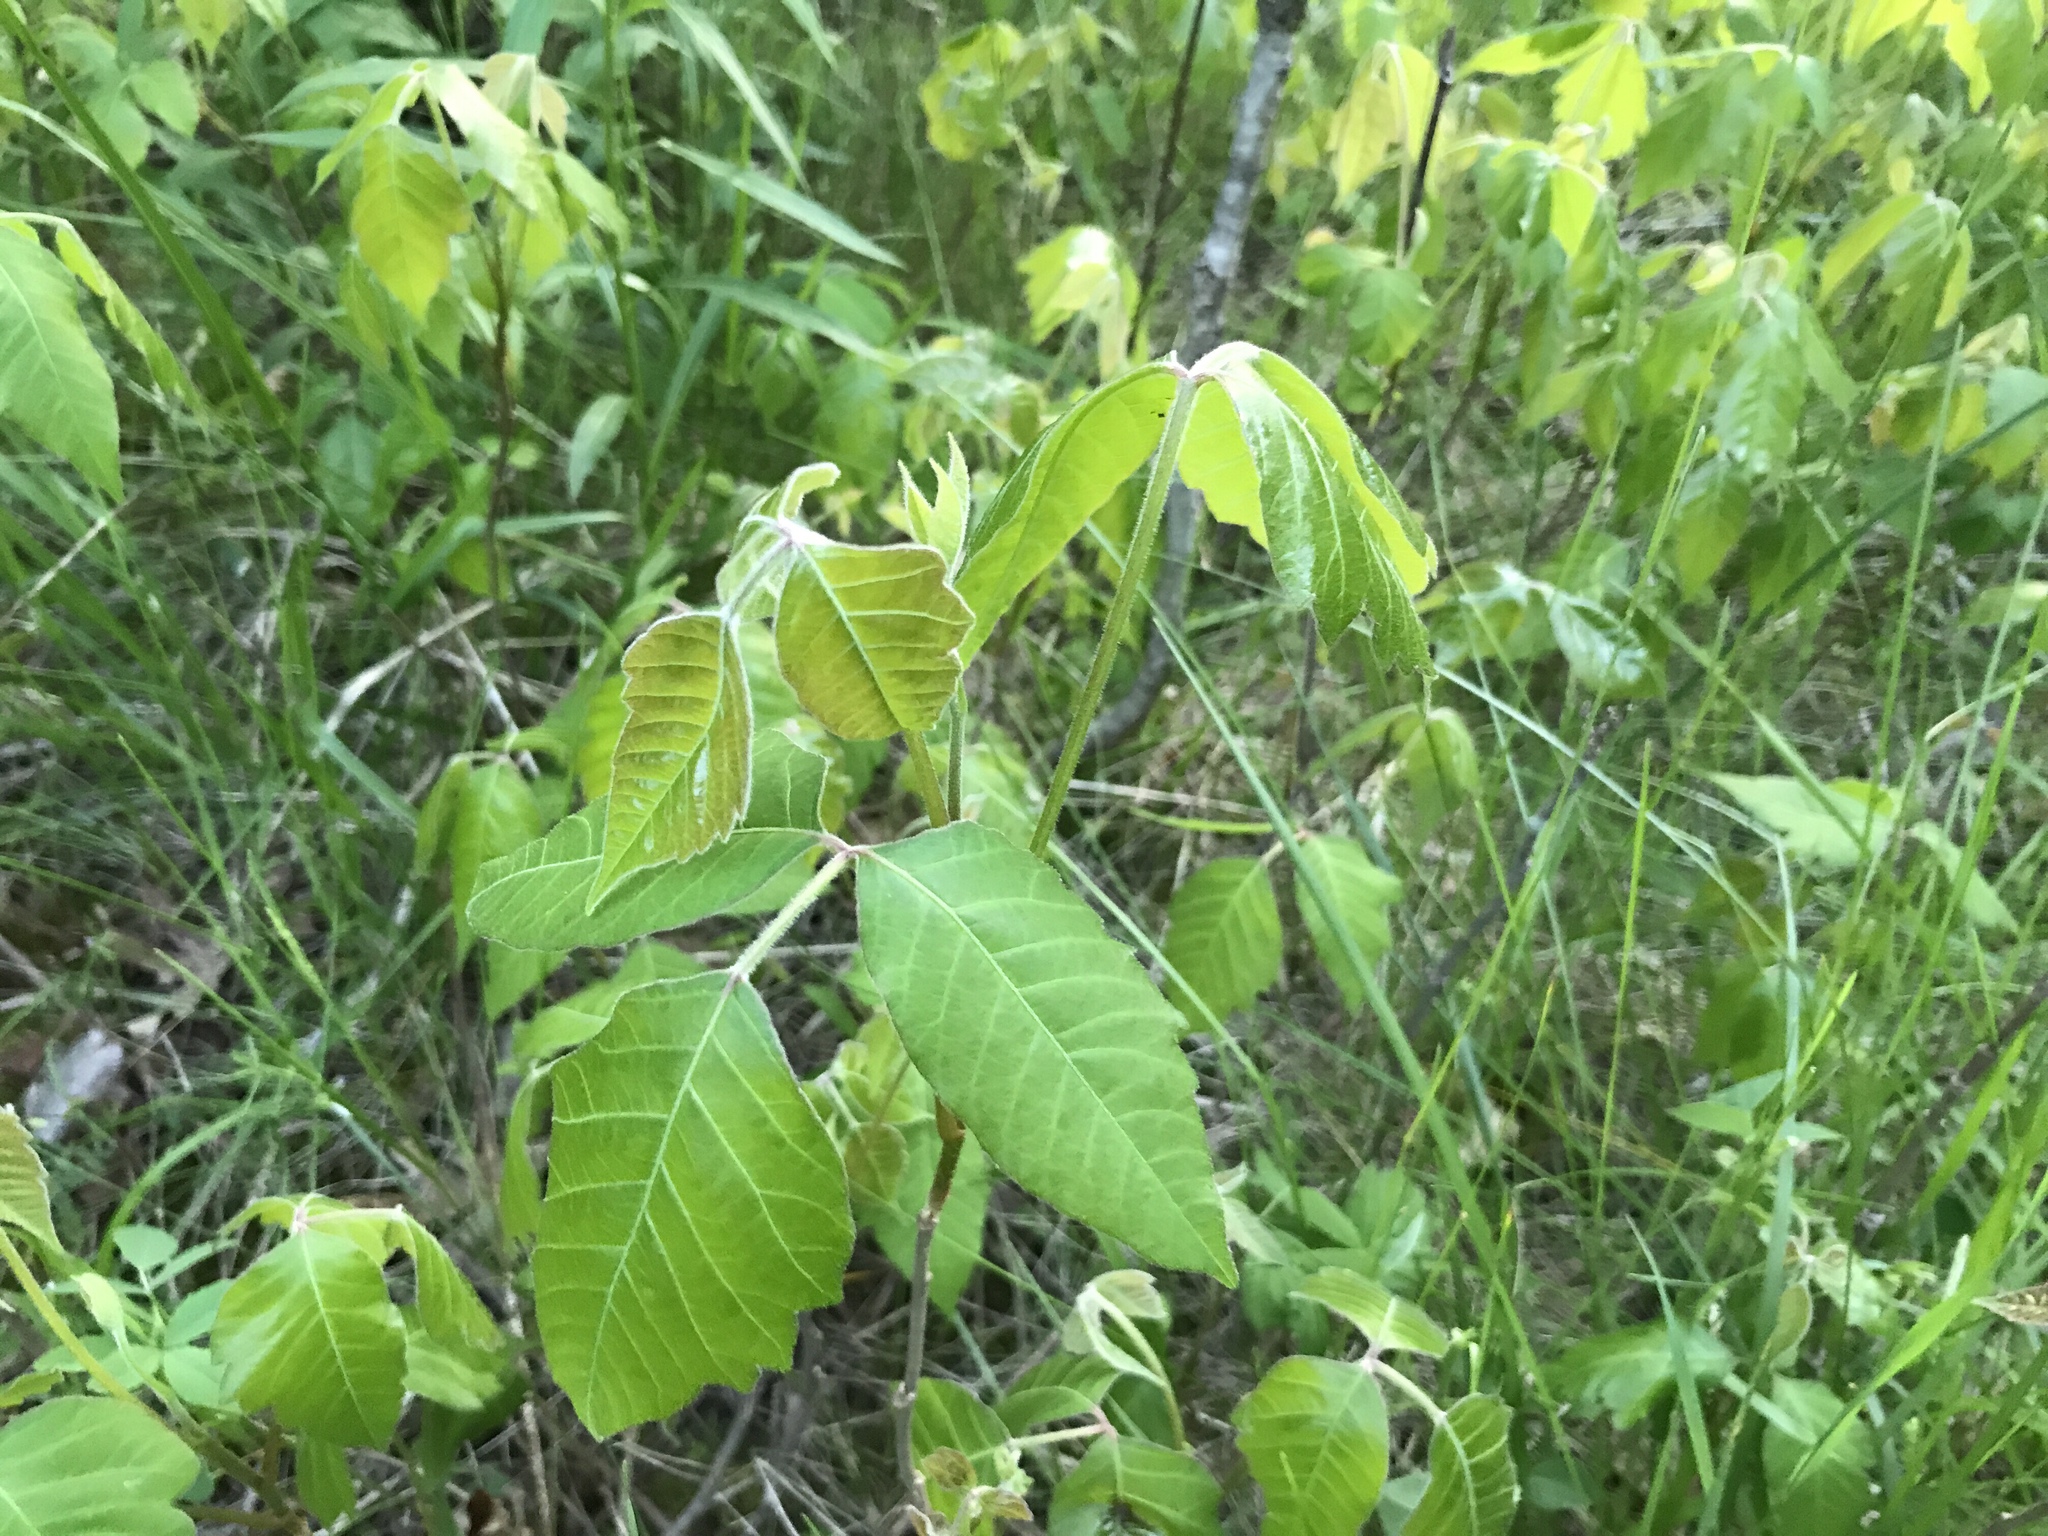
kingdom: Plantae
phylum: Tracheophyta
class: Magnoliopsida
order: Sapindales
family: Anacardiaceae
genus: Toxicodendron
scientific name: Toxicodendron radicans
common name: Poison ivy
